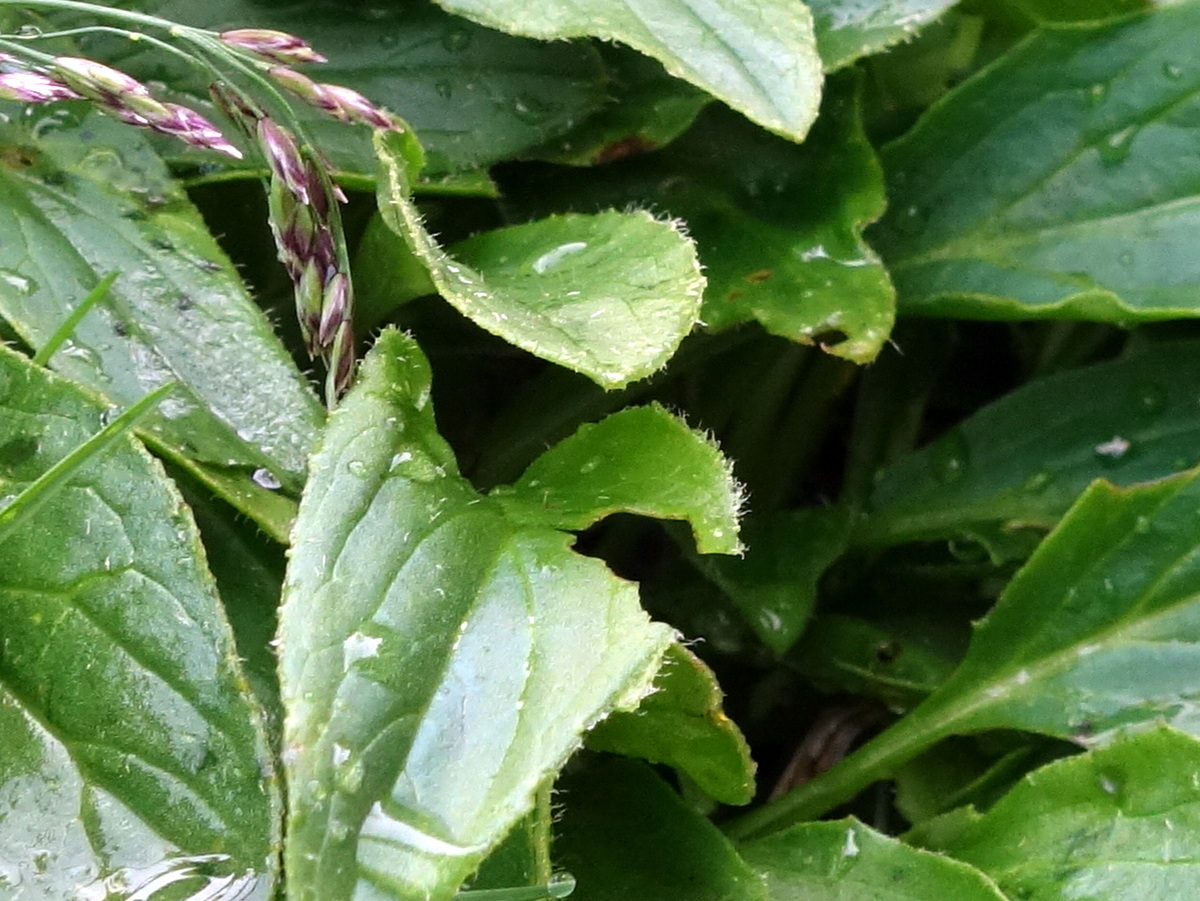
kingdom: Plantae
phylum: Tracheophyta
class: Magnoliopsida
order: Asterales
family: Asteraceae
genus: Doronicum
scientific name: Doronicum clusii
